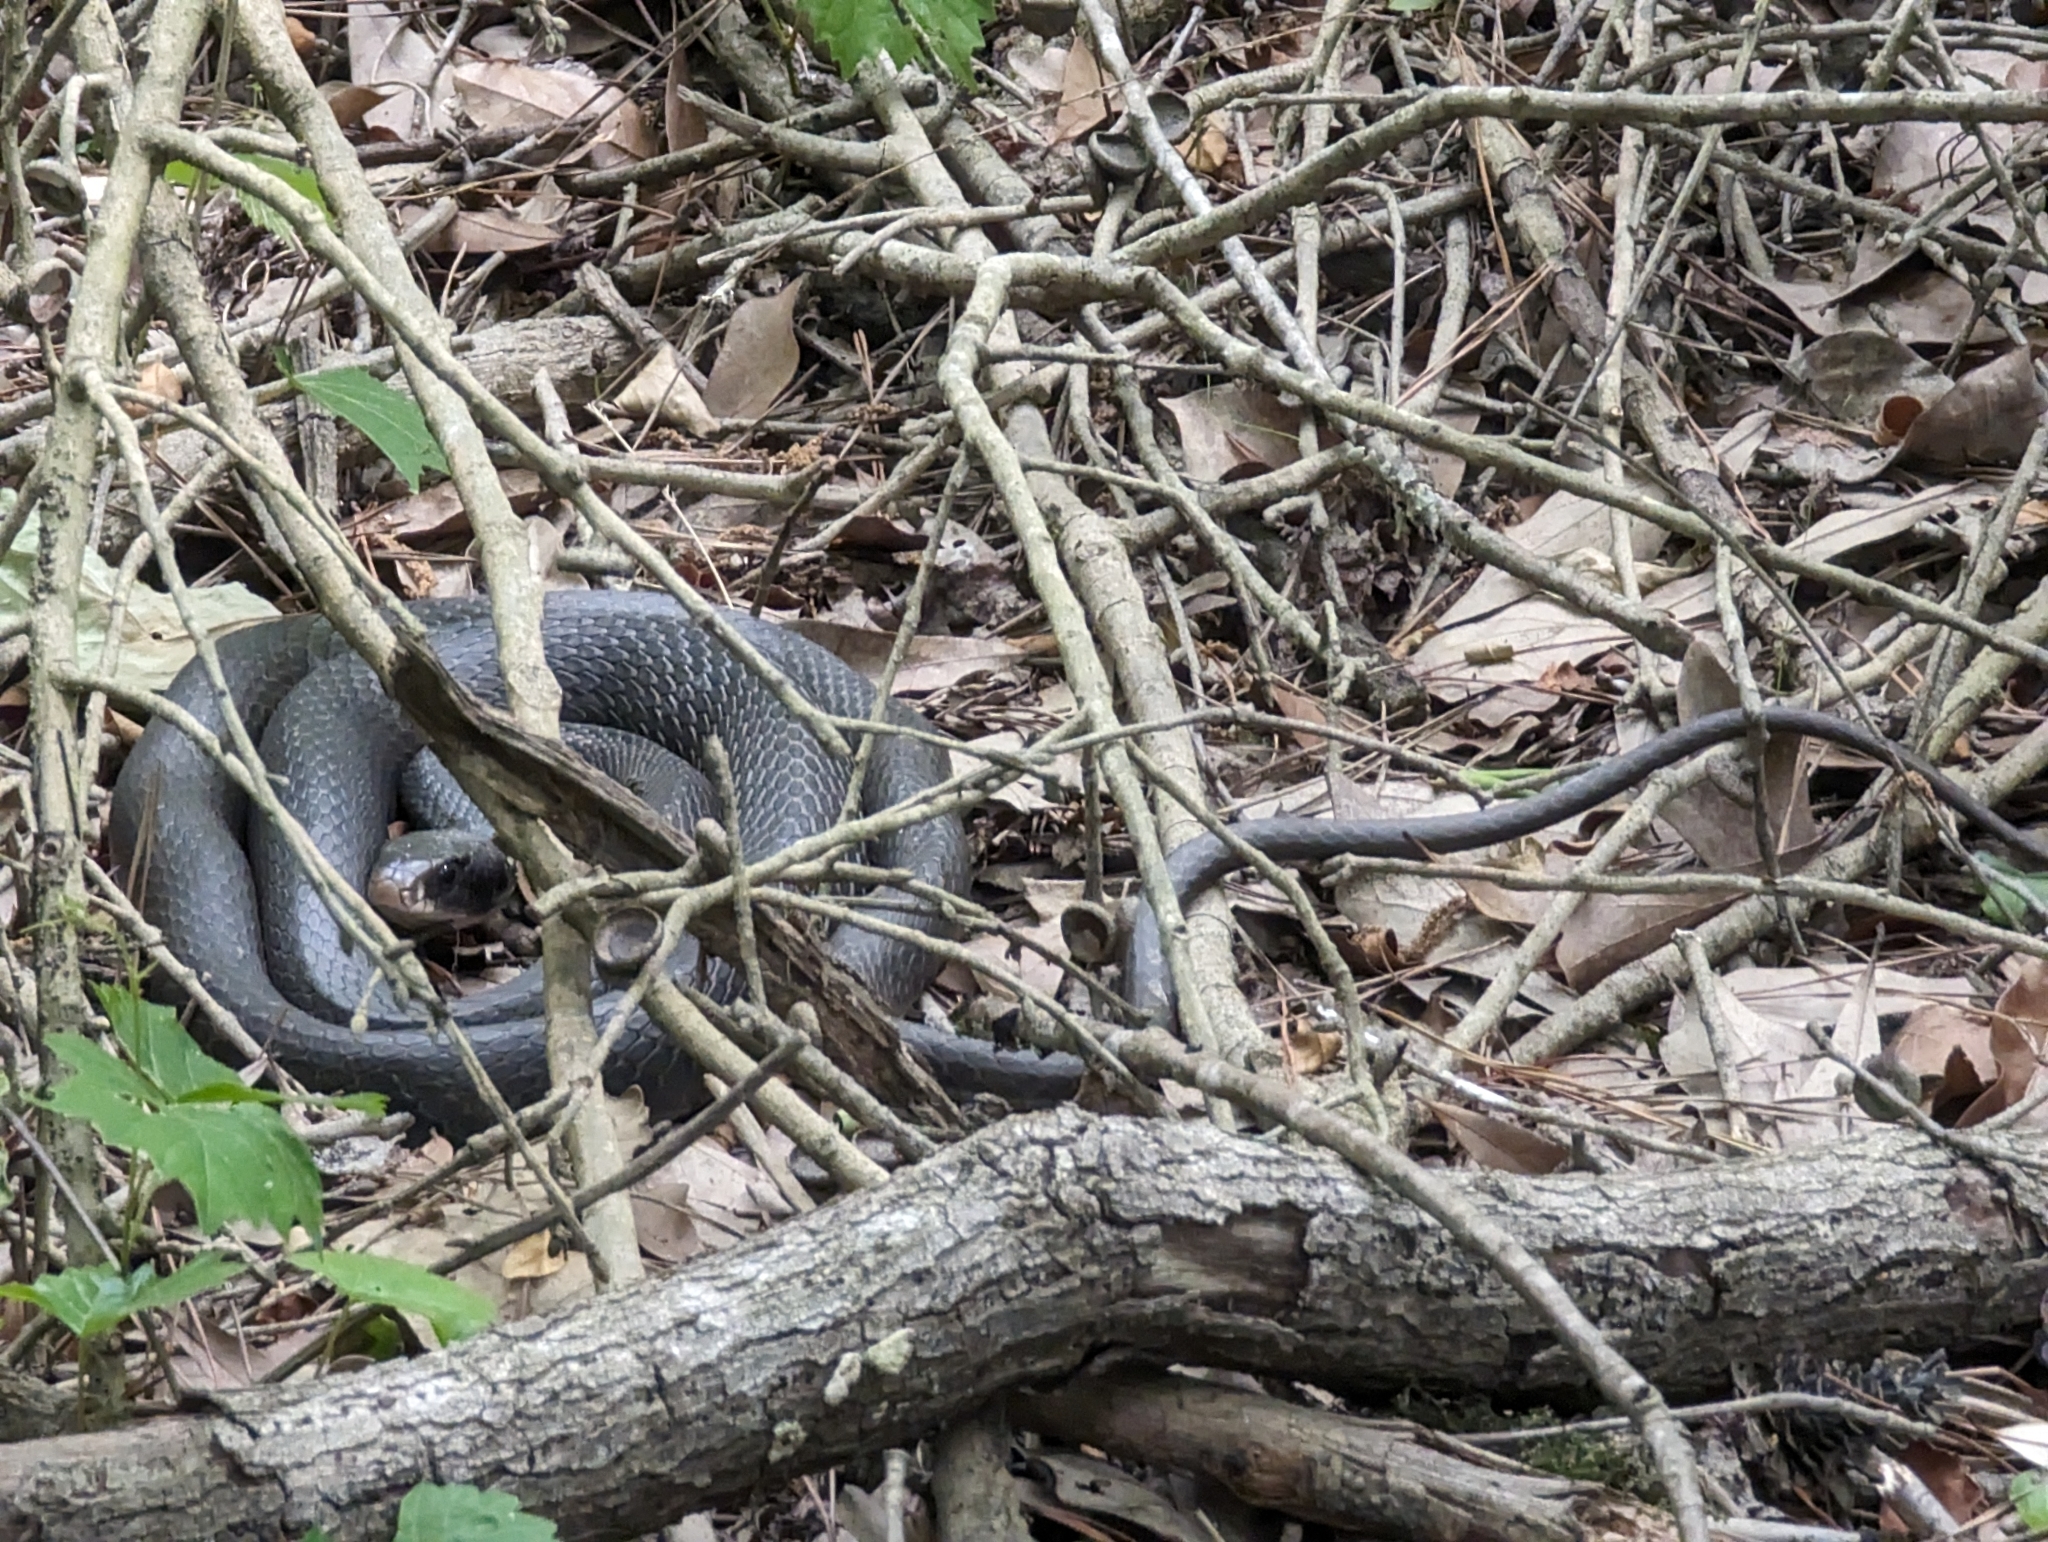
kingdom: Animalia
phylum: Chordata
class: Squamata
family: Colubridae
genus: Coluber
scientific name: Coluber constrictor
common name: Eastern racer
